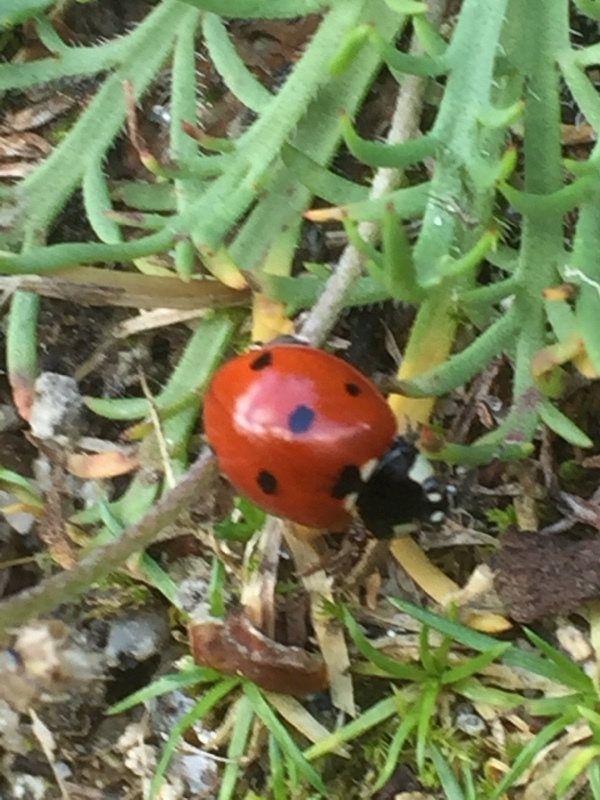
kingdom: Animalia
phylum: Arthropoda
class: Insecta
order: Coleoptera
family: Coccinellidae
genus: Coccinella
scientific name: Coccinella septempunctata
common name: Sevenspotted lady beetle
